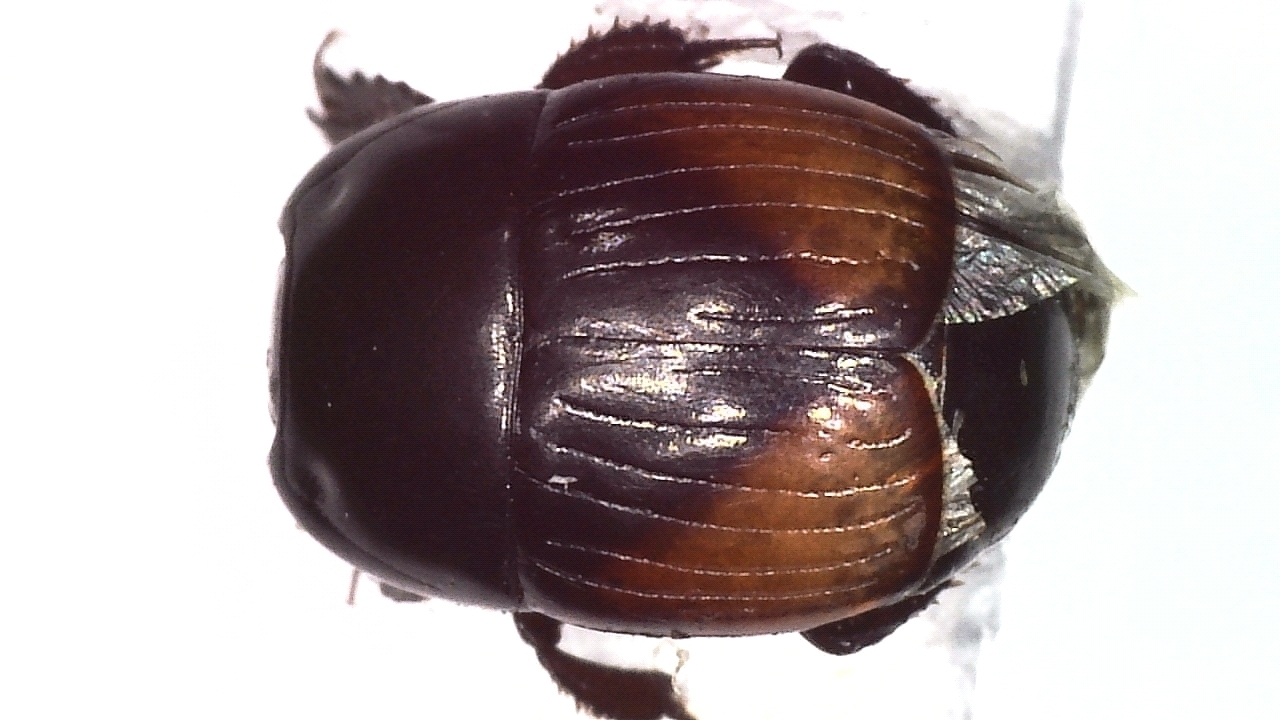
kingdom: Animalia
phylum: Arthropoda
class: Insecta
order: Coleoptera
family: Histeridae
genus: Atholus
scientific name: Atholus bimaculatus
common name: Clown beetle
